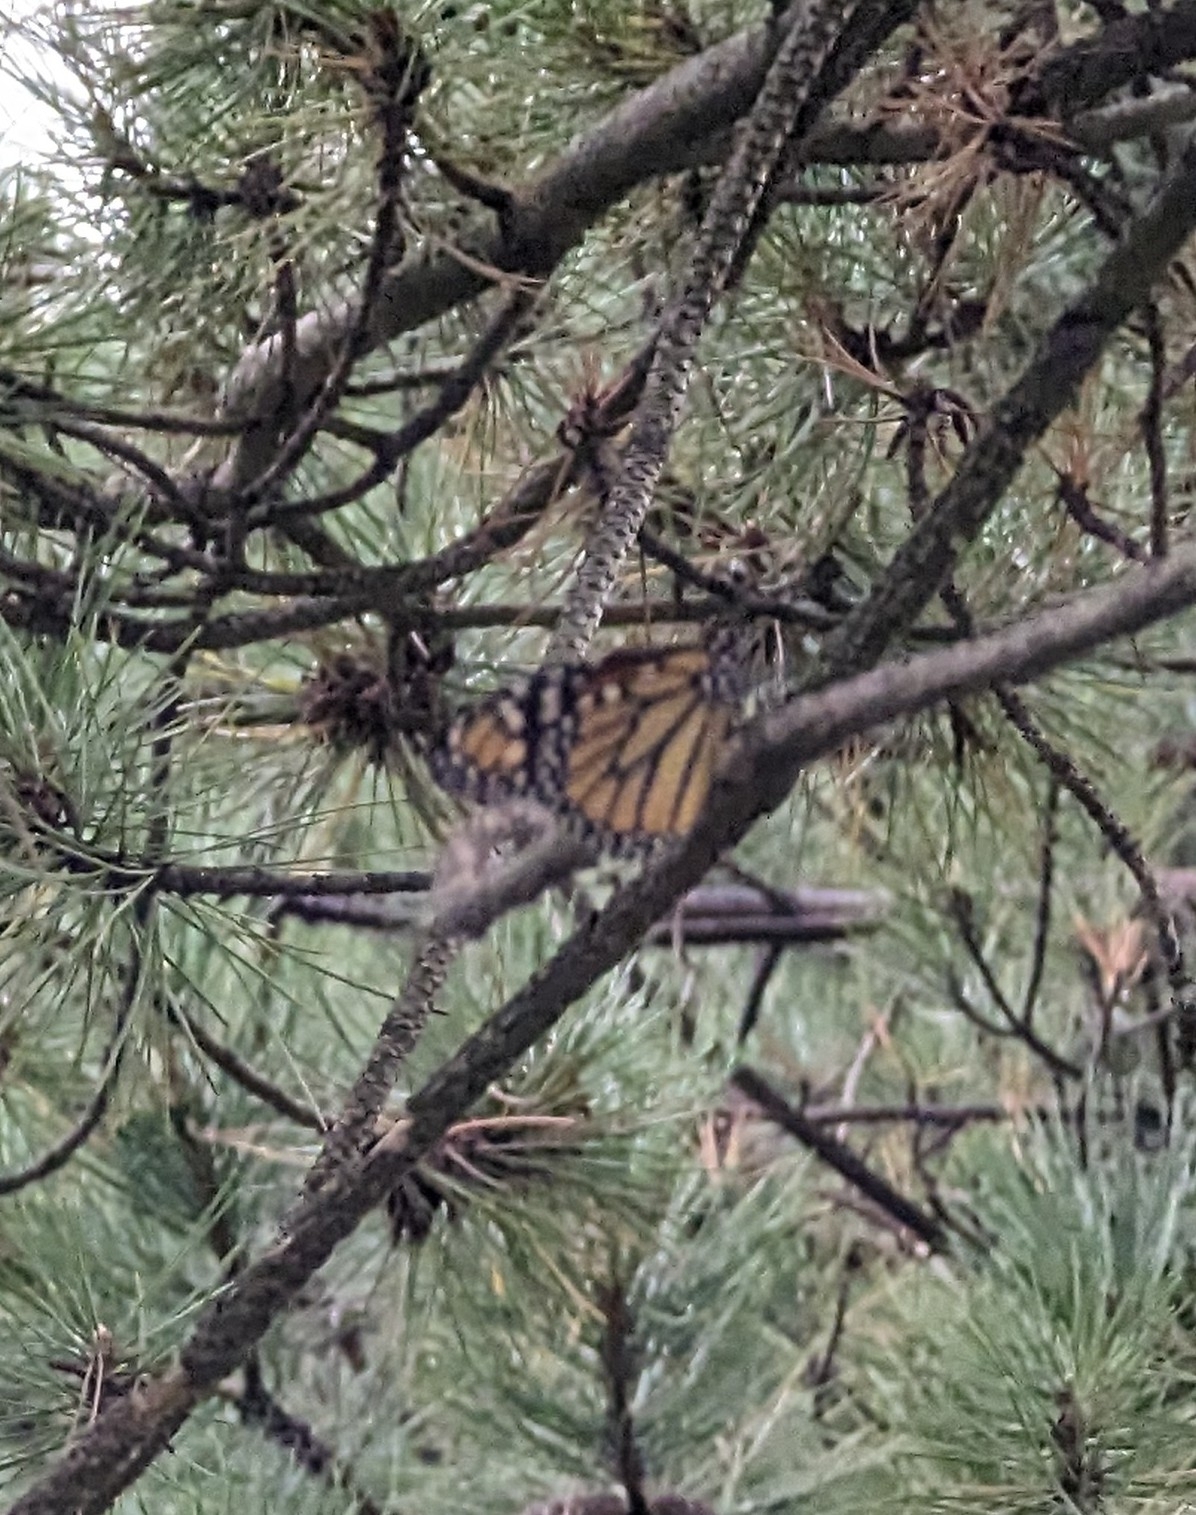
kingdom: Animalia
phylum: Arthropoda
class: Insecta
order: Lepidoptera
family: Nymphalidae
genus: Danaus
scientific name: Danaus plexippus
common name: Monarch
